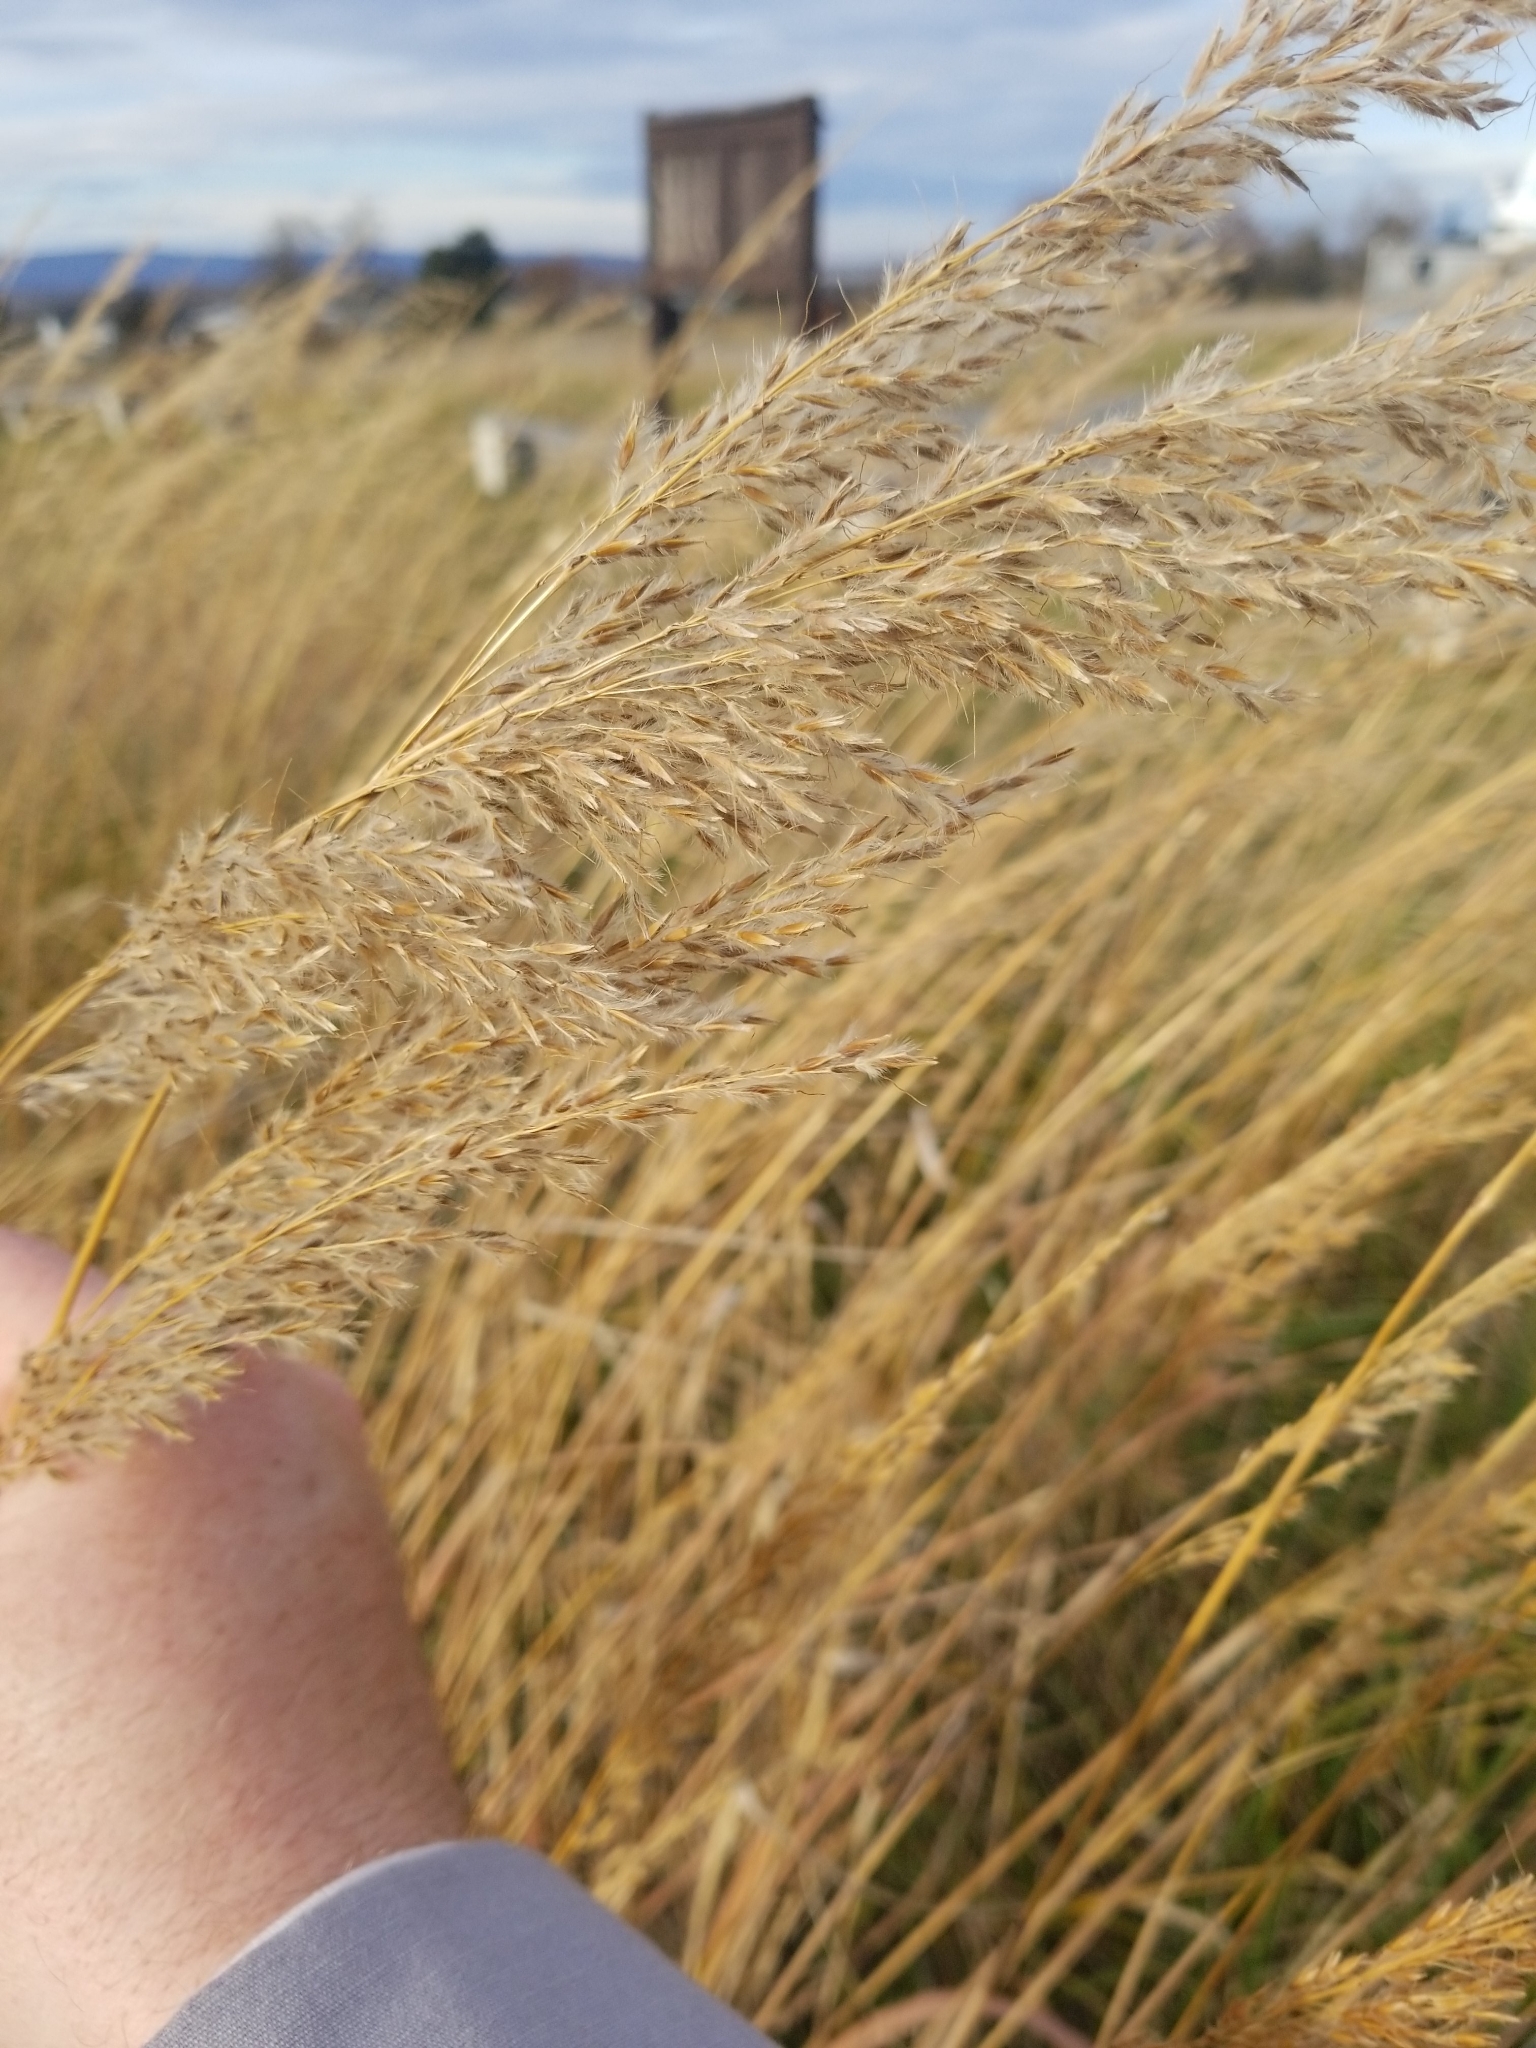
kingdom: Plantae
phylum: Tracheophyta
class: Liliopsida
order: Poales
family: Poaceae
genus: Sorghastrum
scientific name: Sorghastrum nutans
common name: Indian grass
